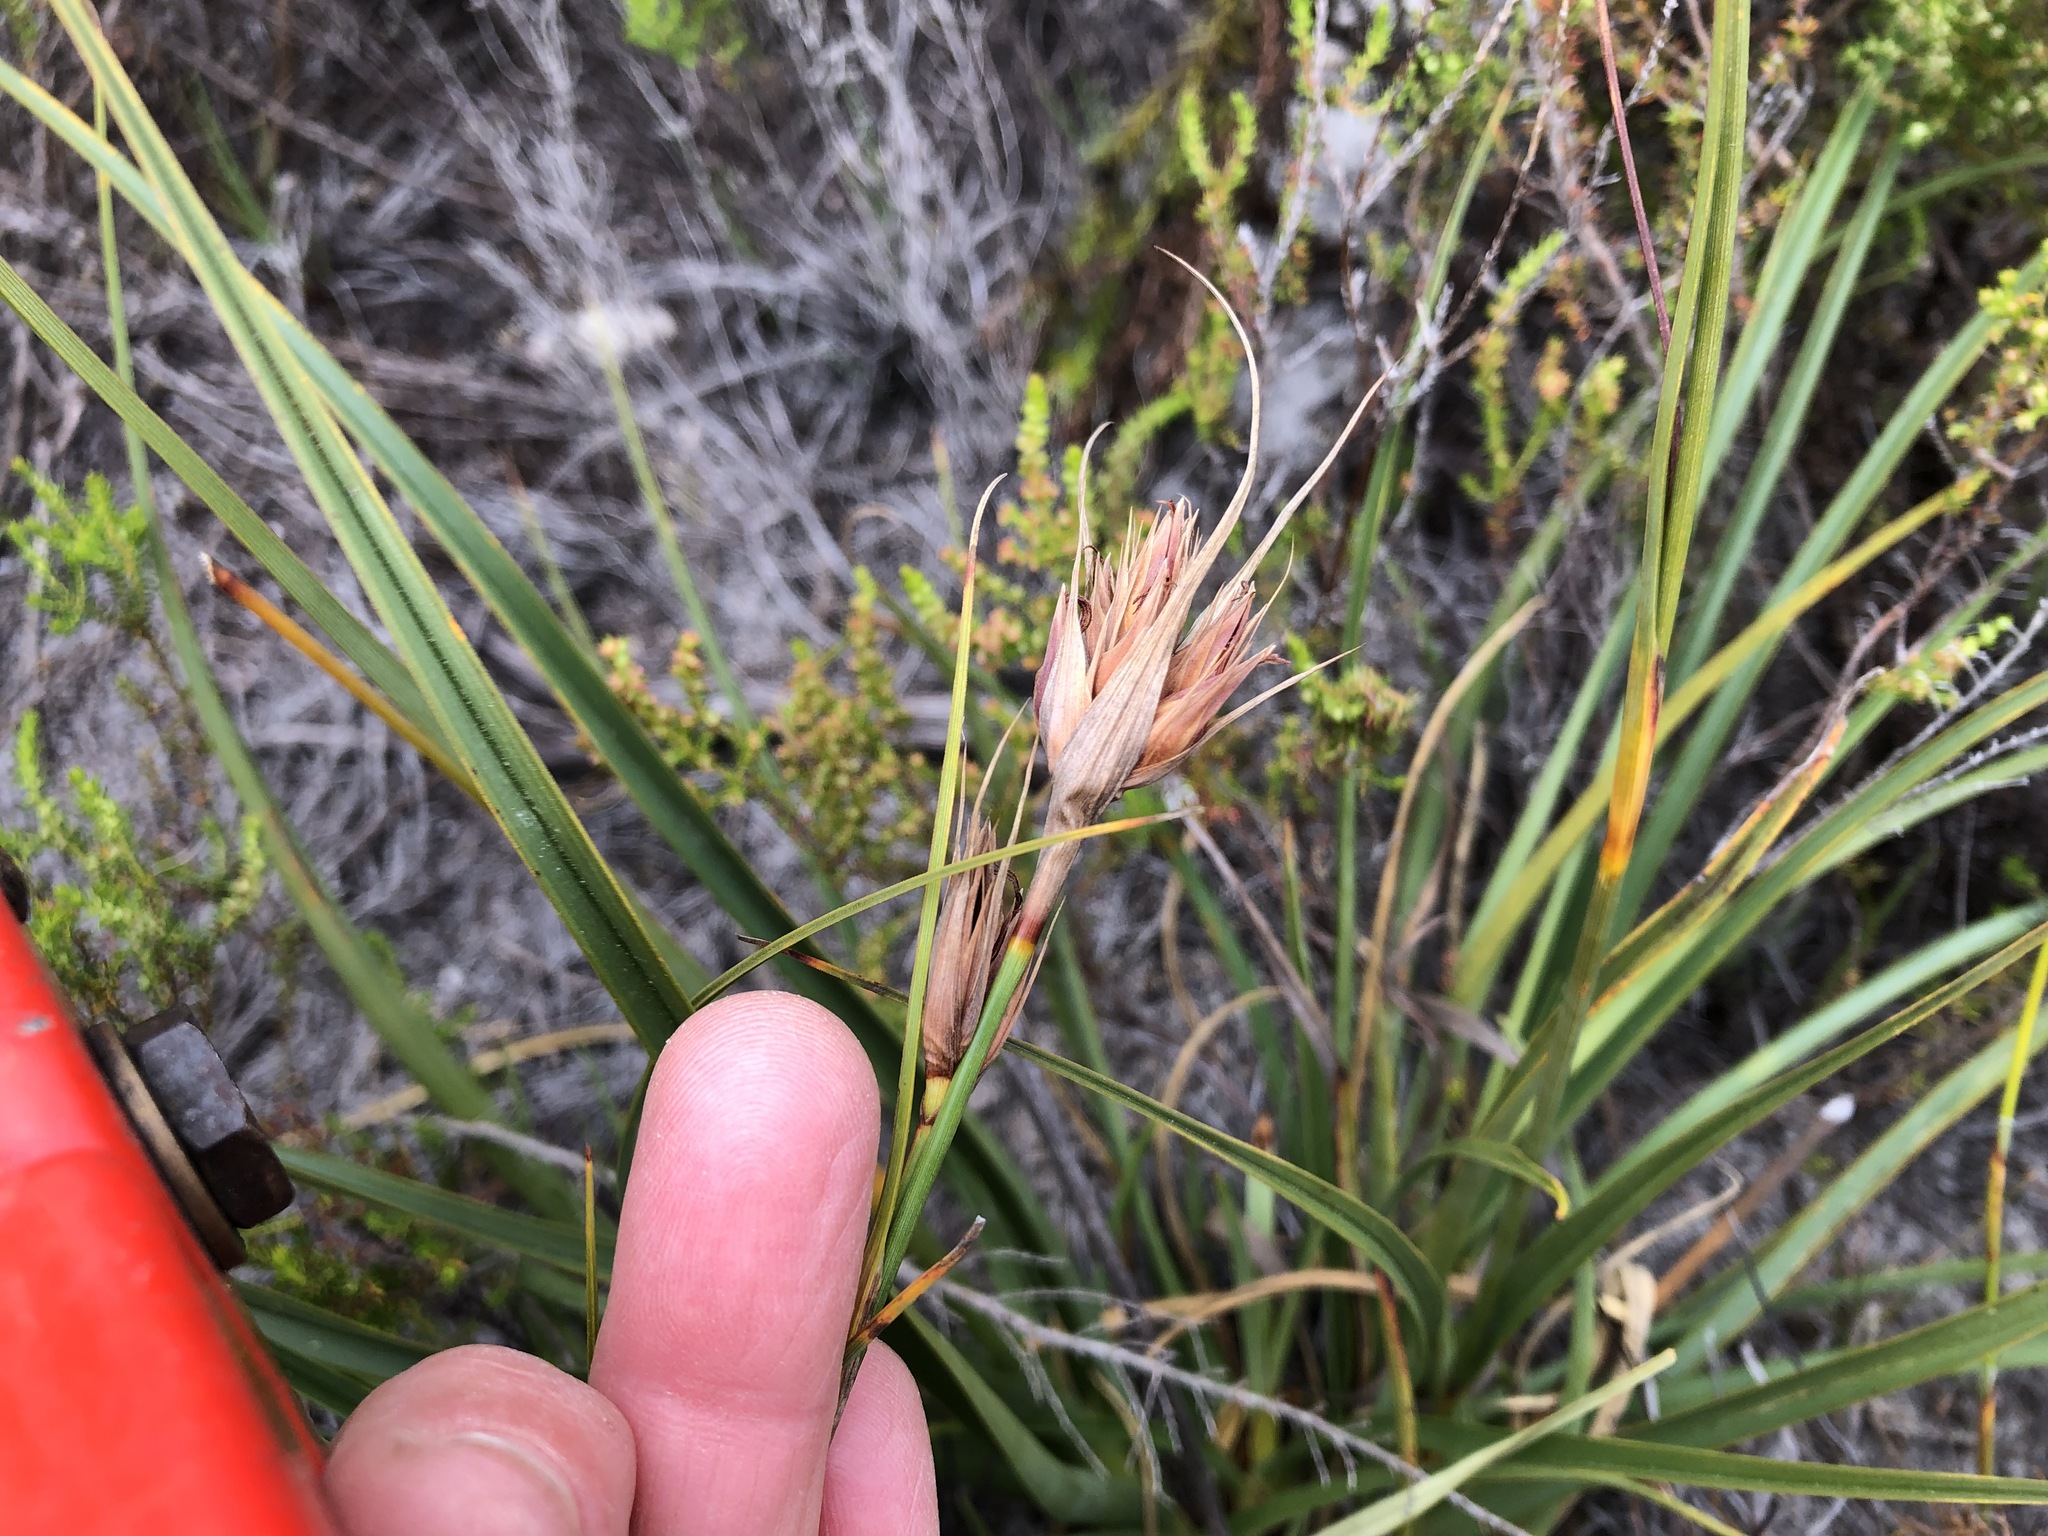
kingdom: Plantae
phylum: Tracheophyta
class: Liliopsida
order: Poales
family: Cyperaceae
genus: Tetraria
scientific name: Tetraria eximia
